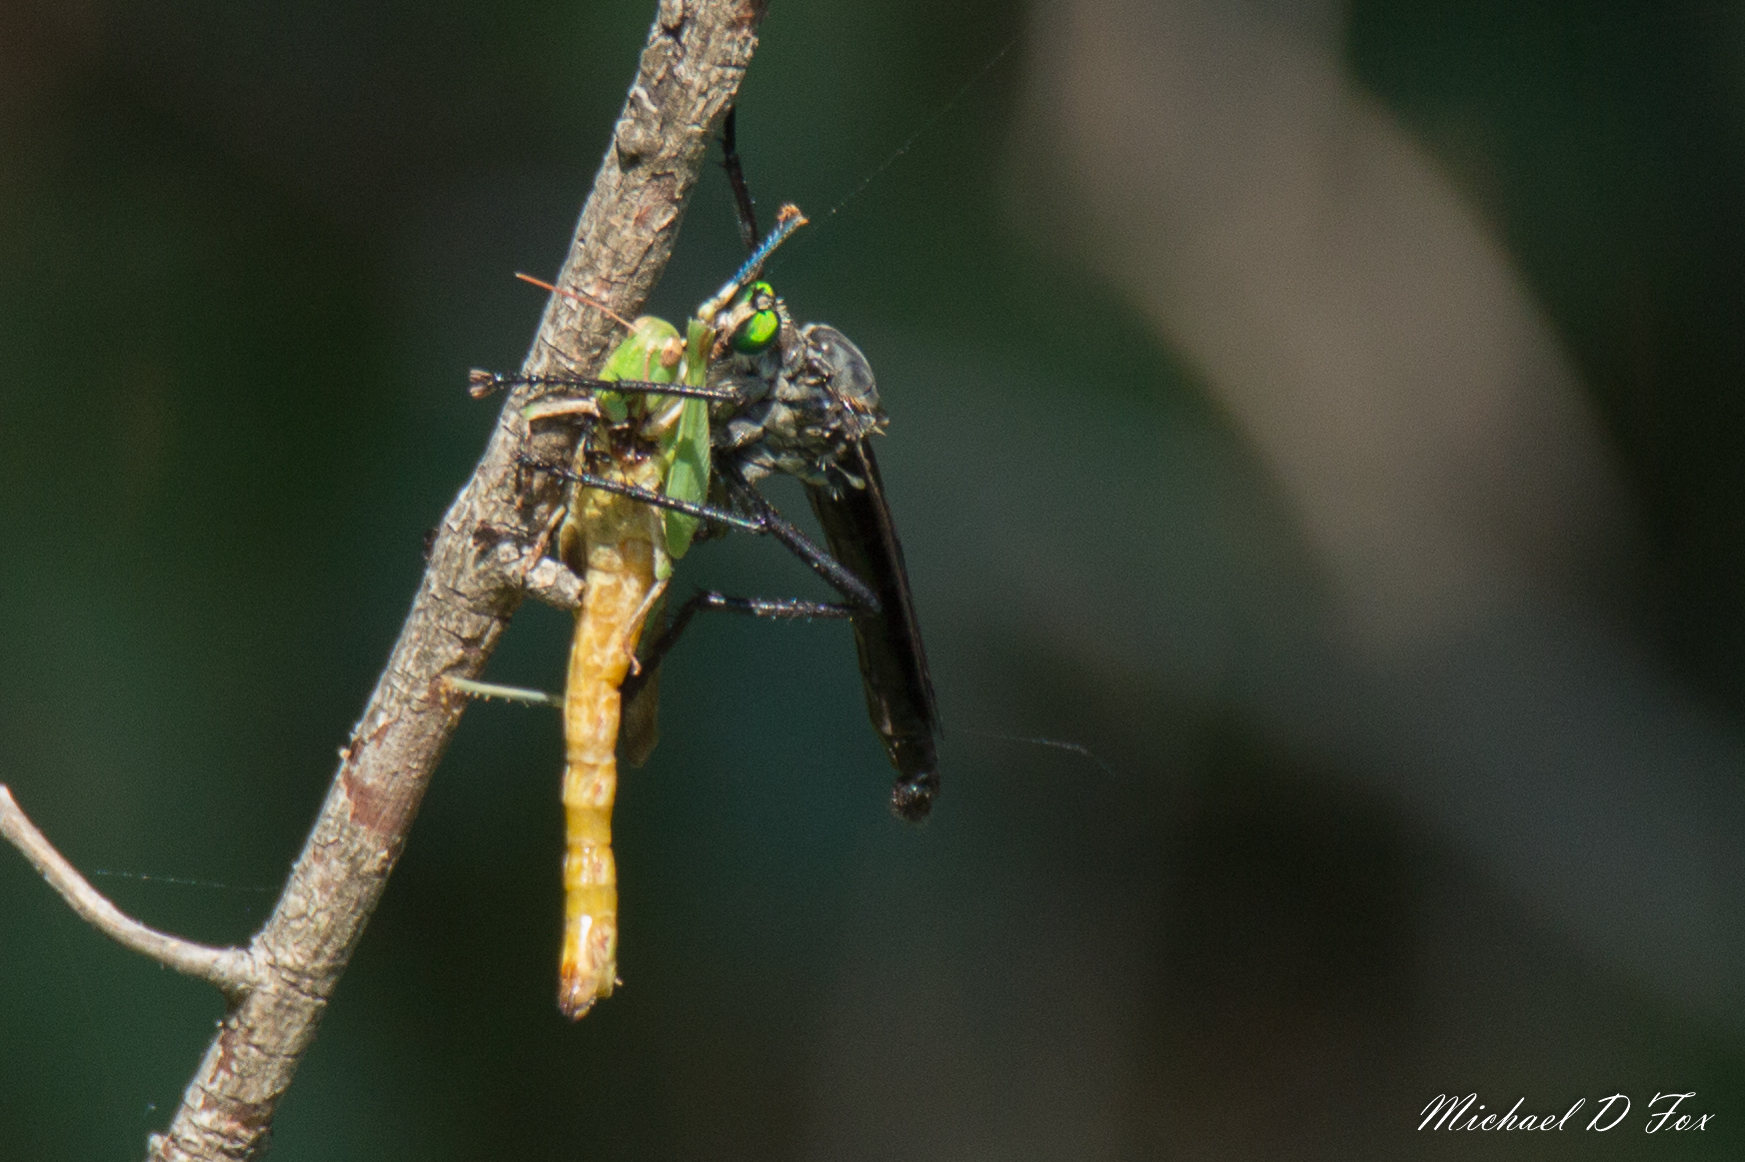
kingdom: Animalia
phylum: Arthropoda
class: Insecta
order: Diptera
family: Asilidae
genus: Microstylum
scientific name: Microstylum morosum
